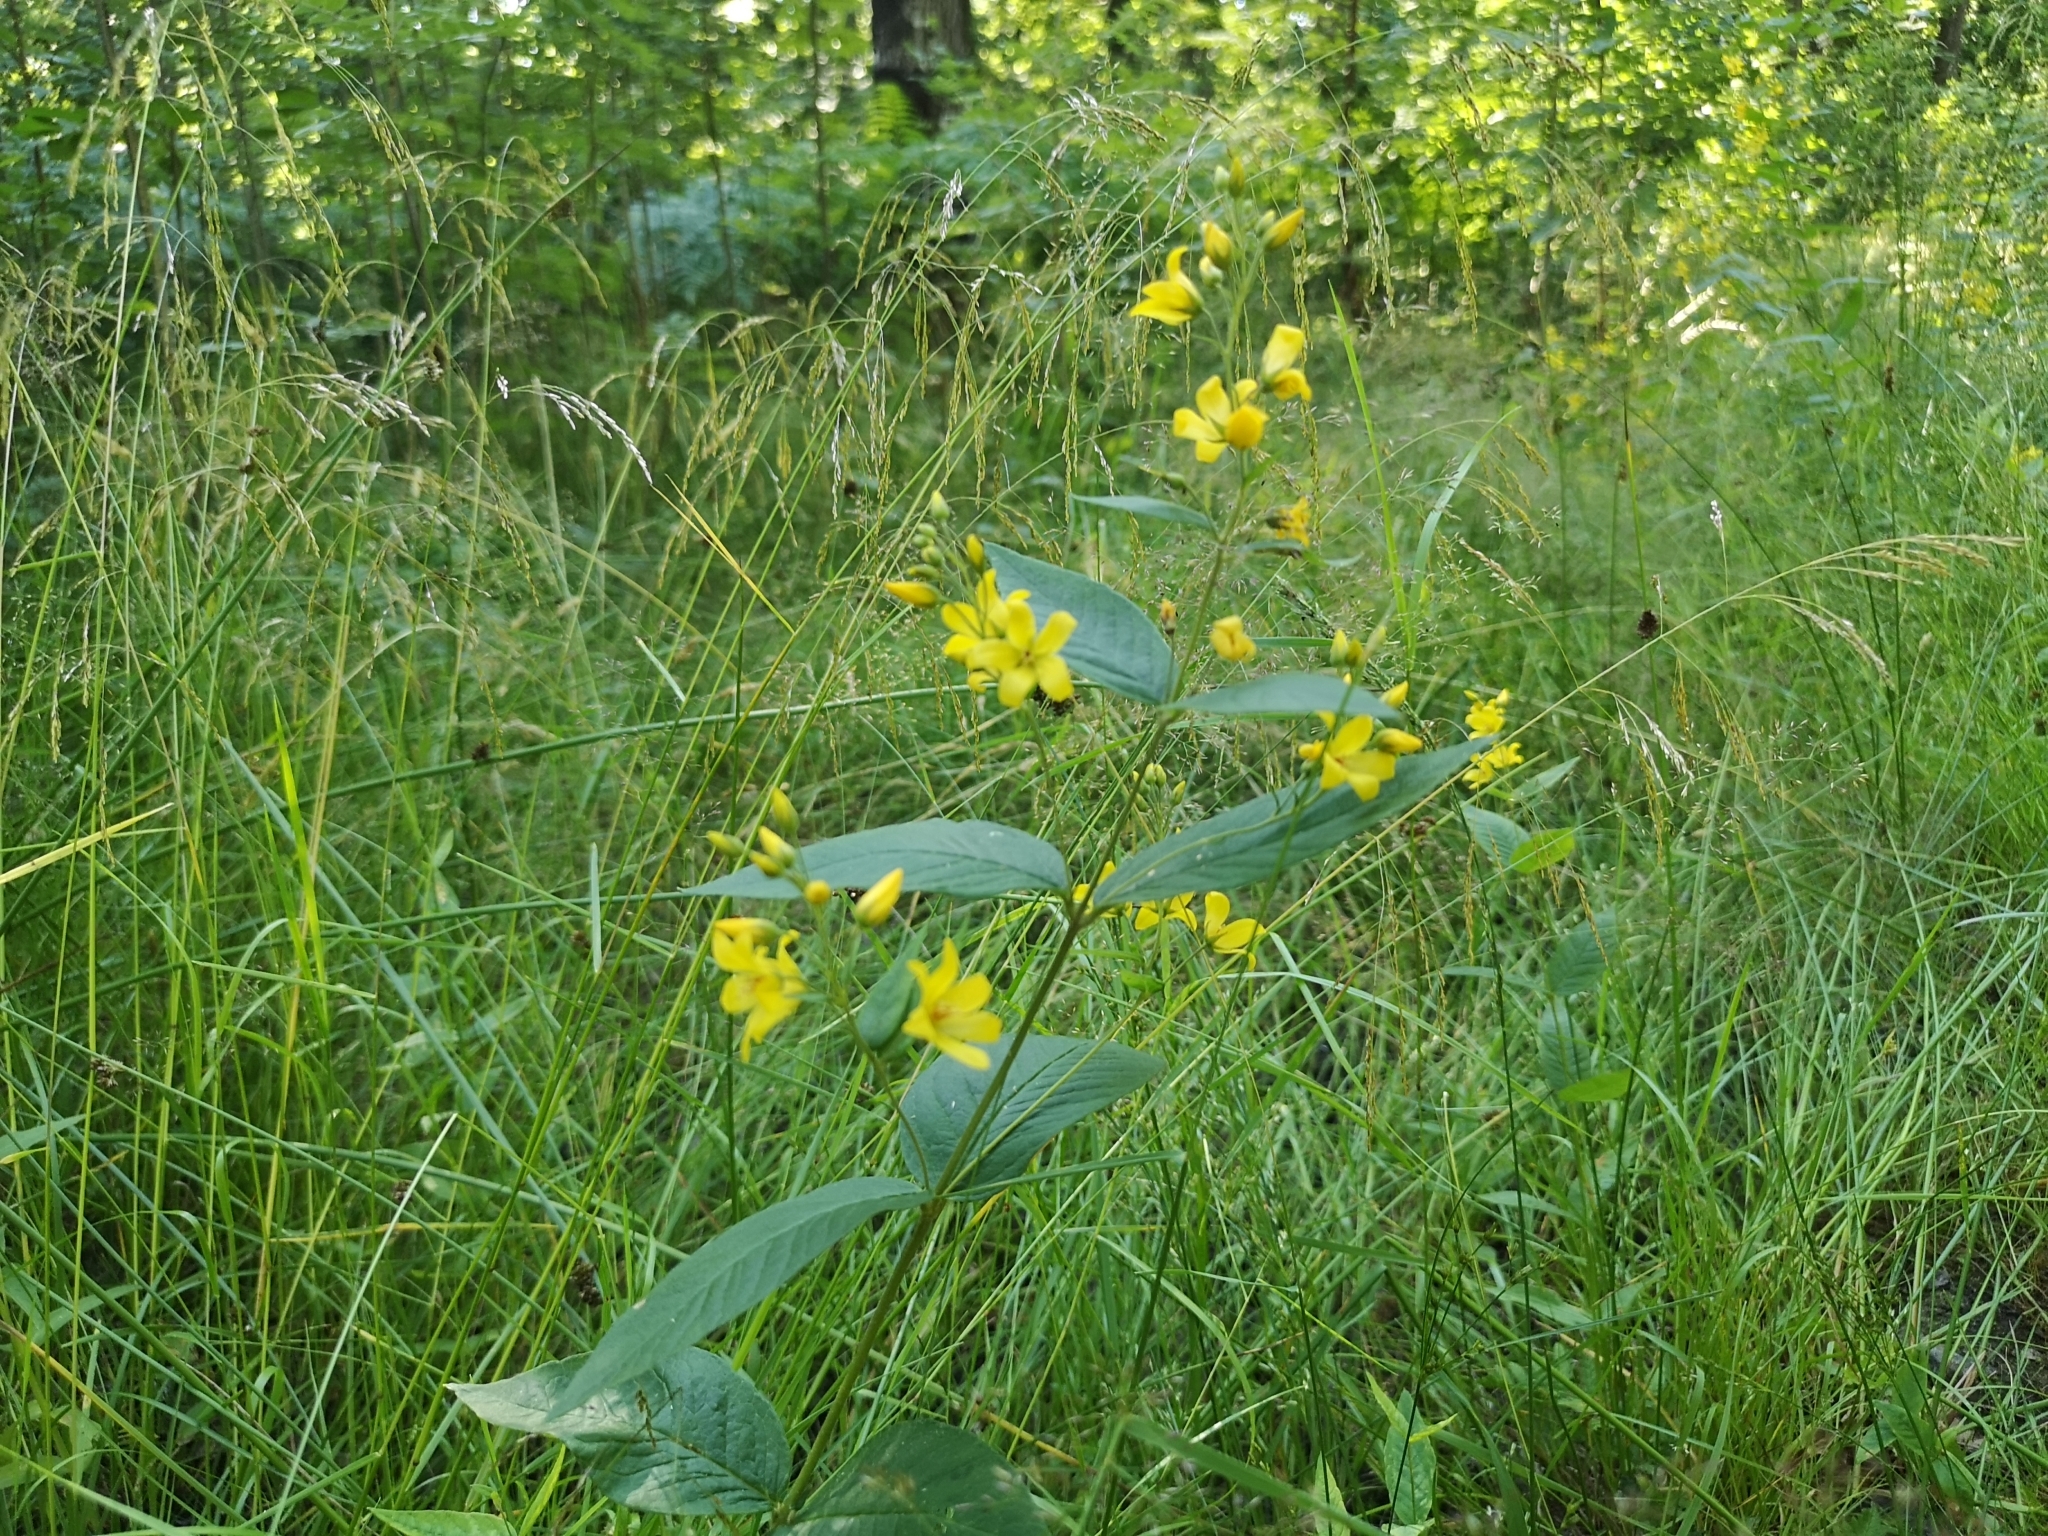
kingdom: Plantae
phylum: Tracheophyta
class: Magnoliopsida
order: Ericales
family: Primulaceae
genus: Lysimachia
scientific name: Lysimachia vulgaris
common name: Yellow loosestrife
